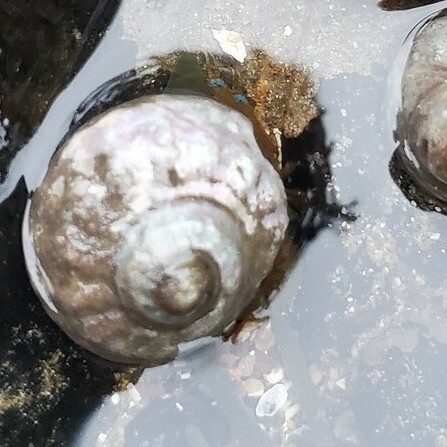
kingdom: Animalia
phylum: Mollusca
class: Gastropoda
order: Trochida
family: Tegulidae
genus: Tegula
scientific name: Tegula aureotincta
